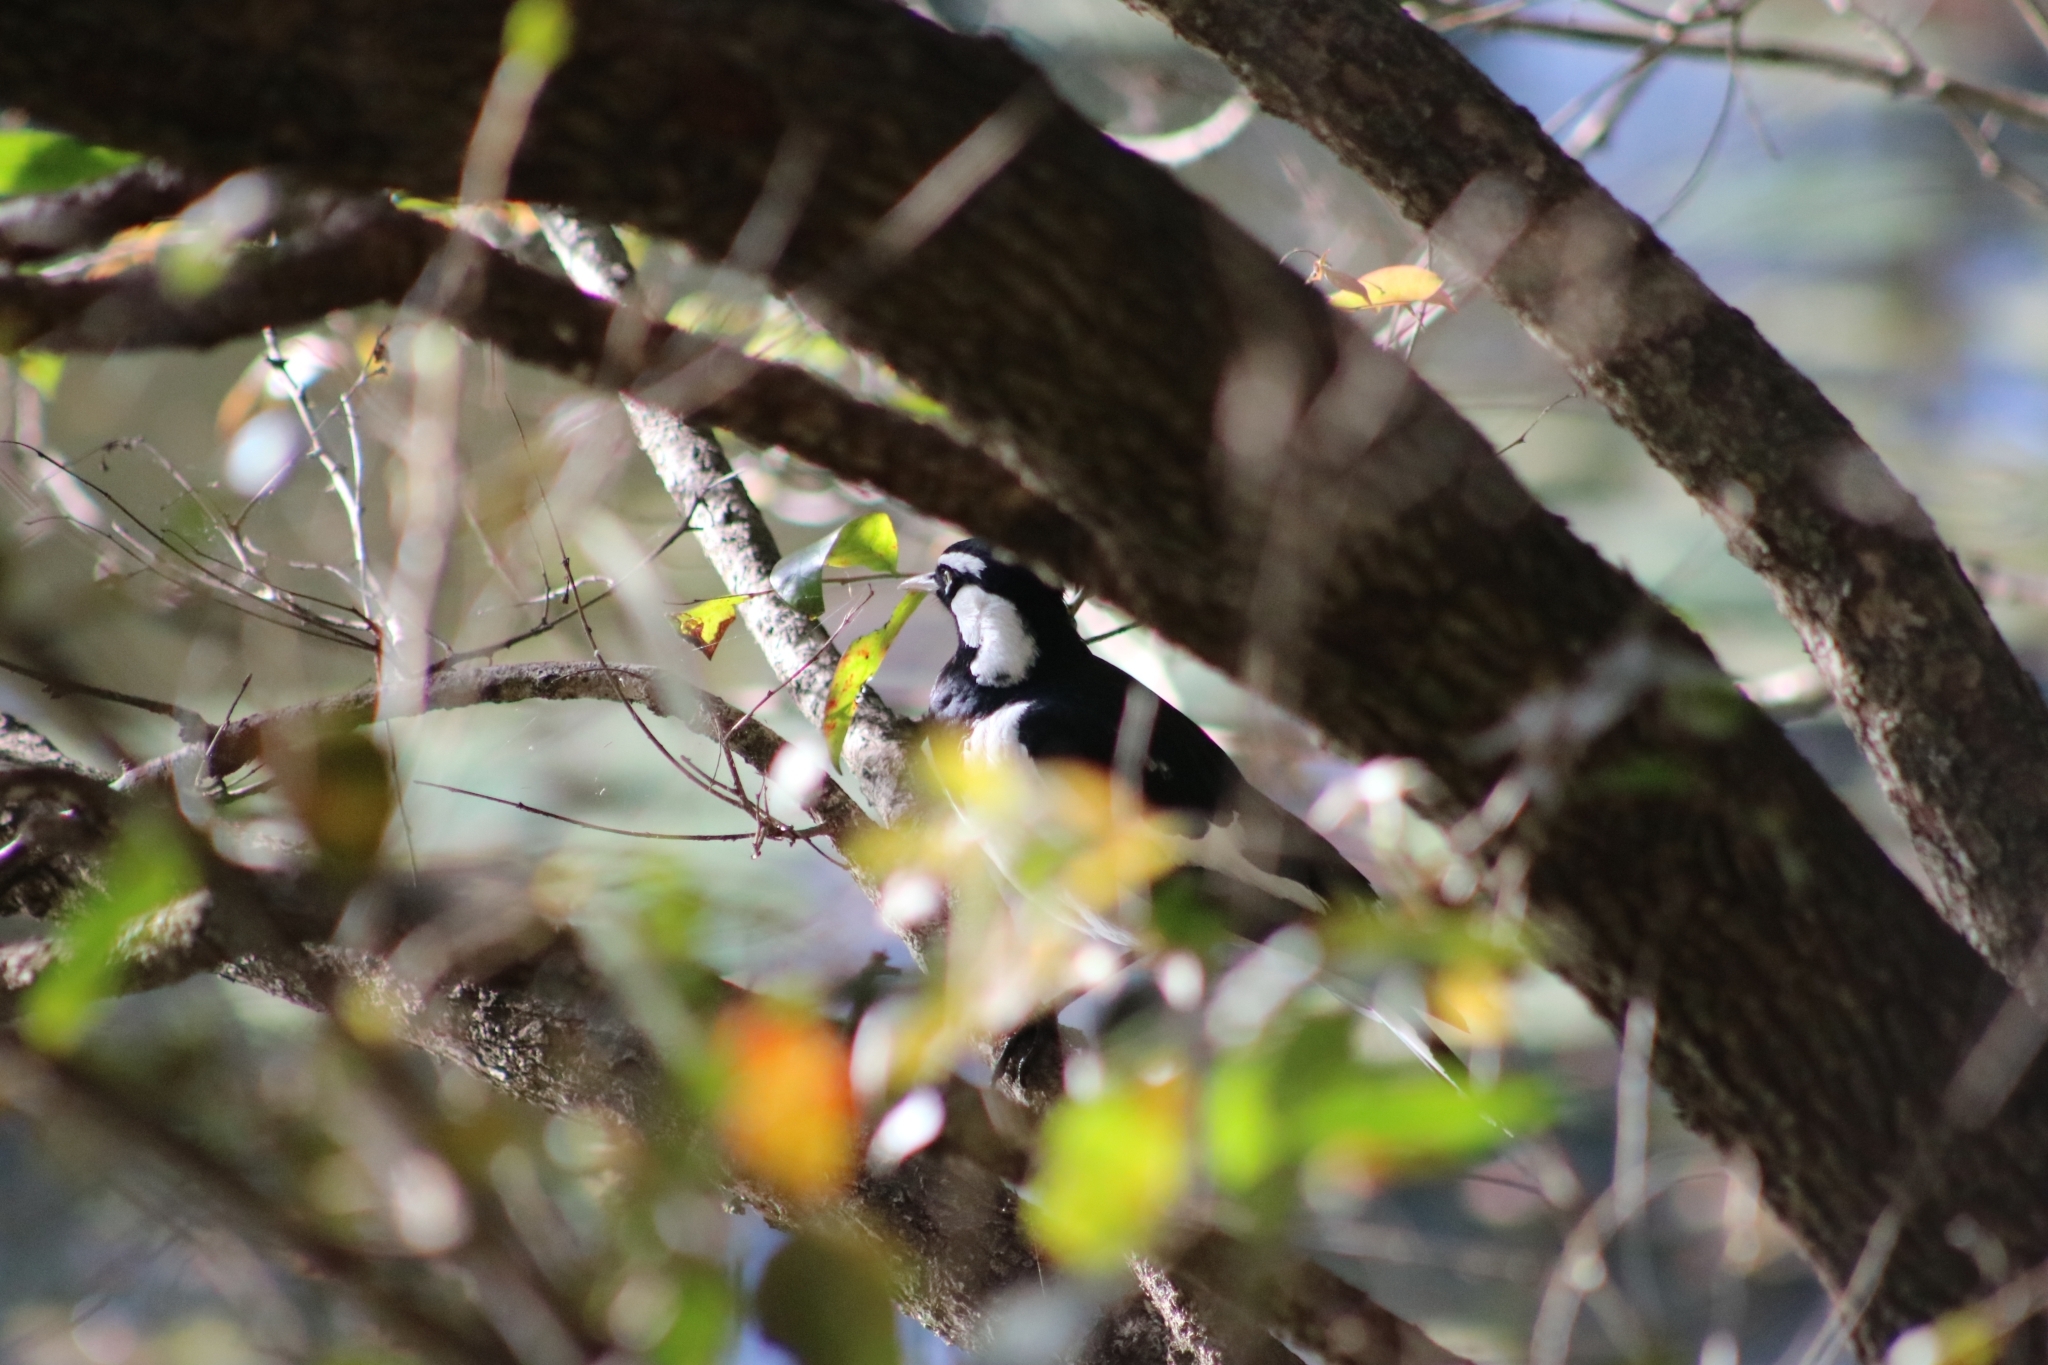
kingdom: Animalia
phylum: Chordata
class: Aves
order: Passeriformes
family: Monarchidae
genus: Grallina
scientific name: Grallina cyanoleuca
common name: Magpie-lark
